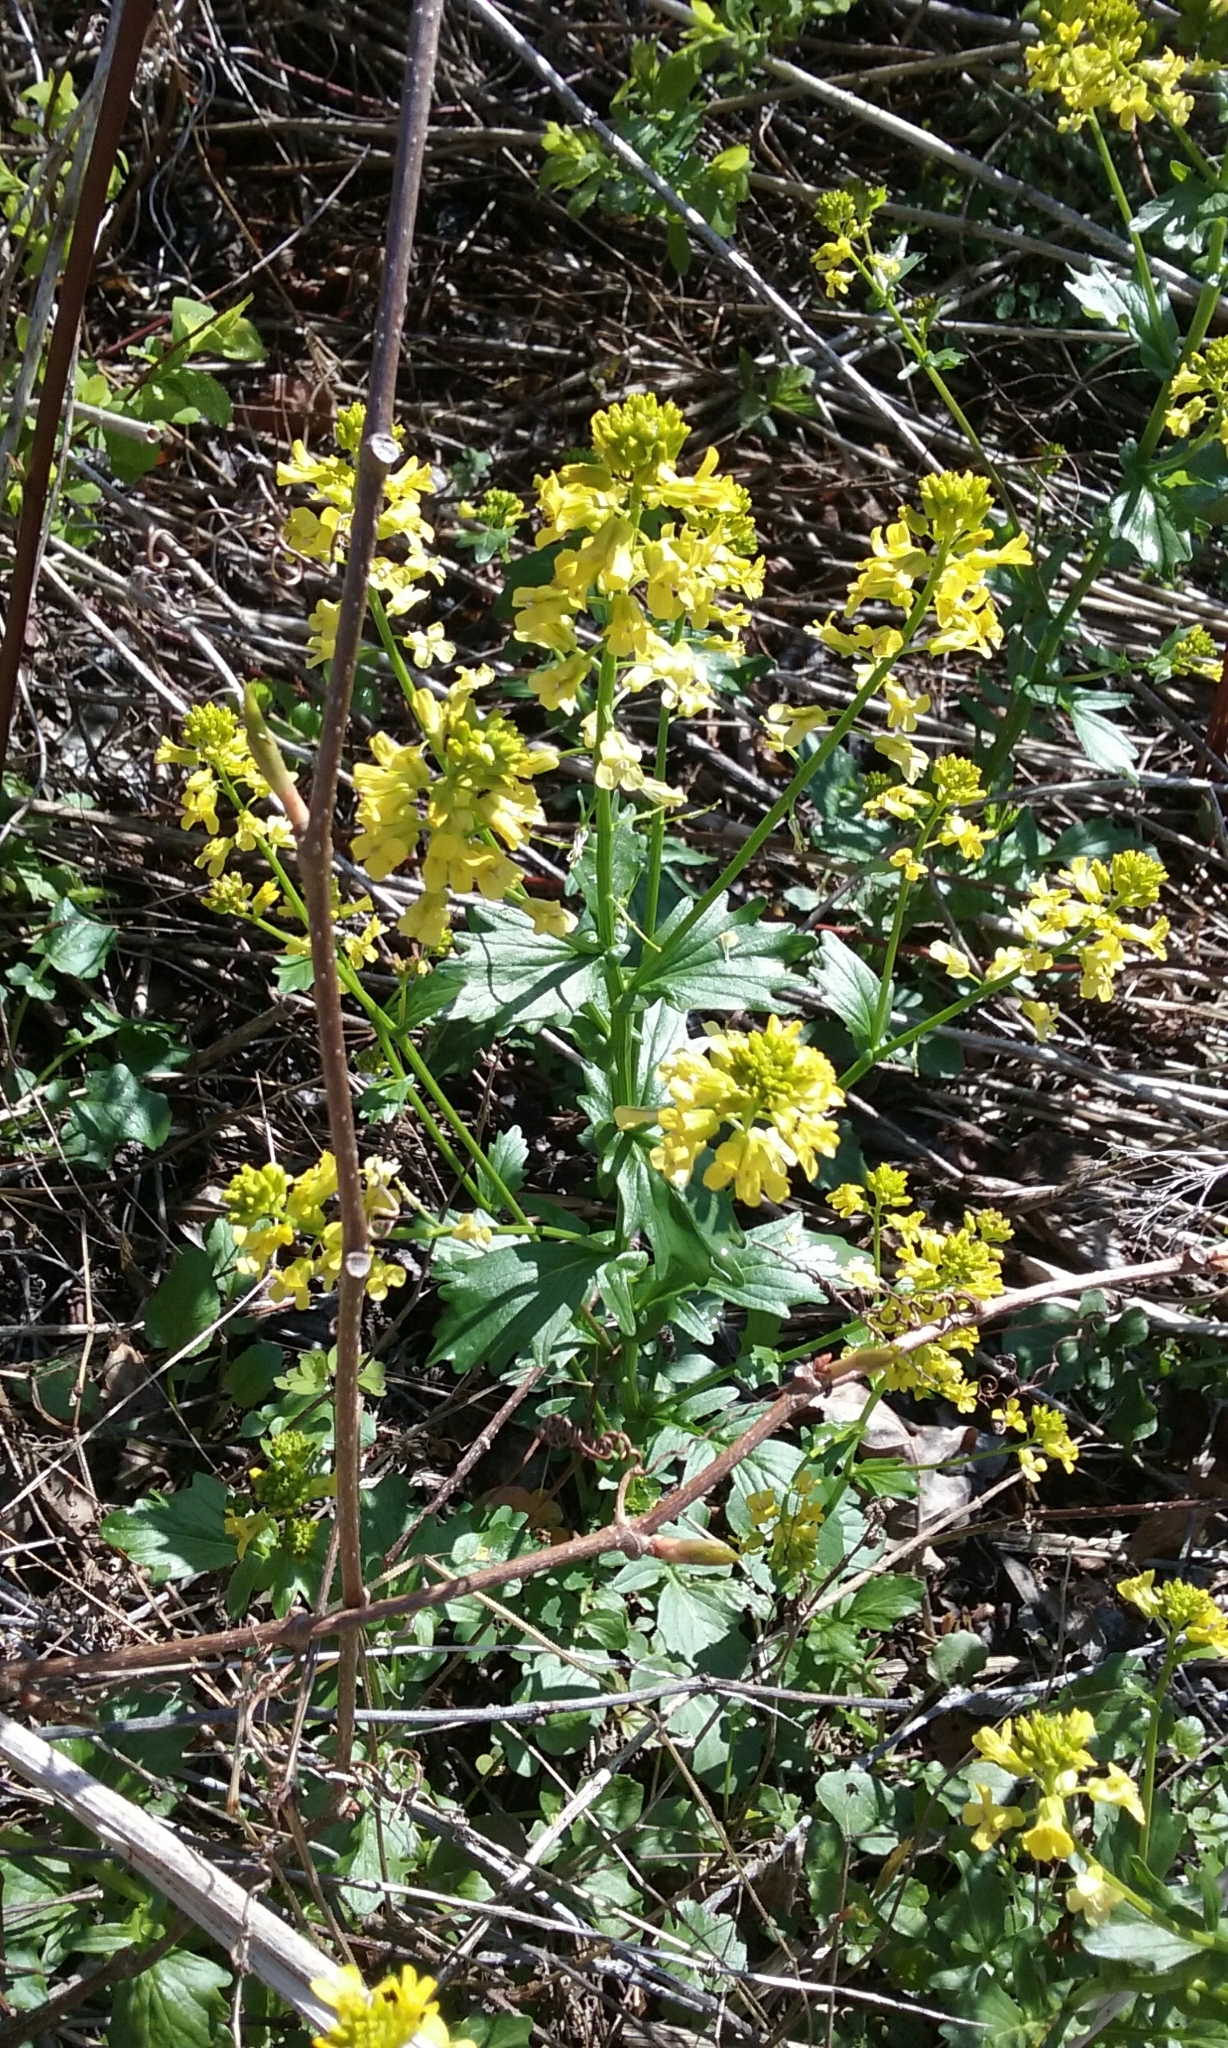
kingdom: Plantae
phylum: Tracheophyta
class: Magnoliopsida
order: Brassicales
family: Brassicaceae
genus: Barbarea
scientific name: Barbarea vulgaris
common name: Cressy-greens
